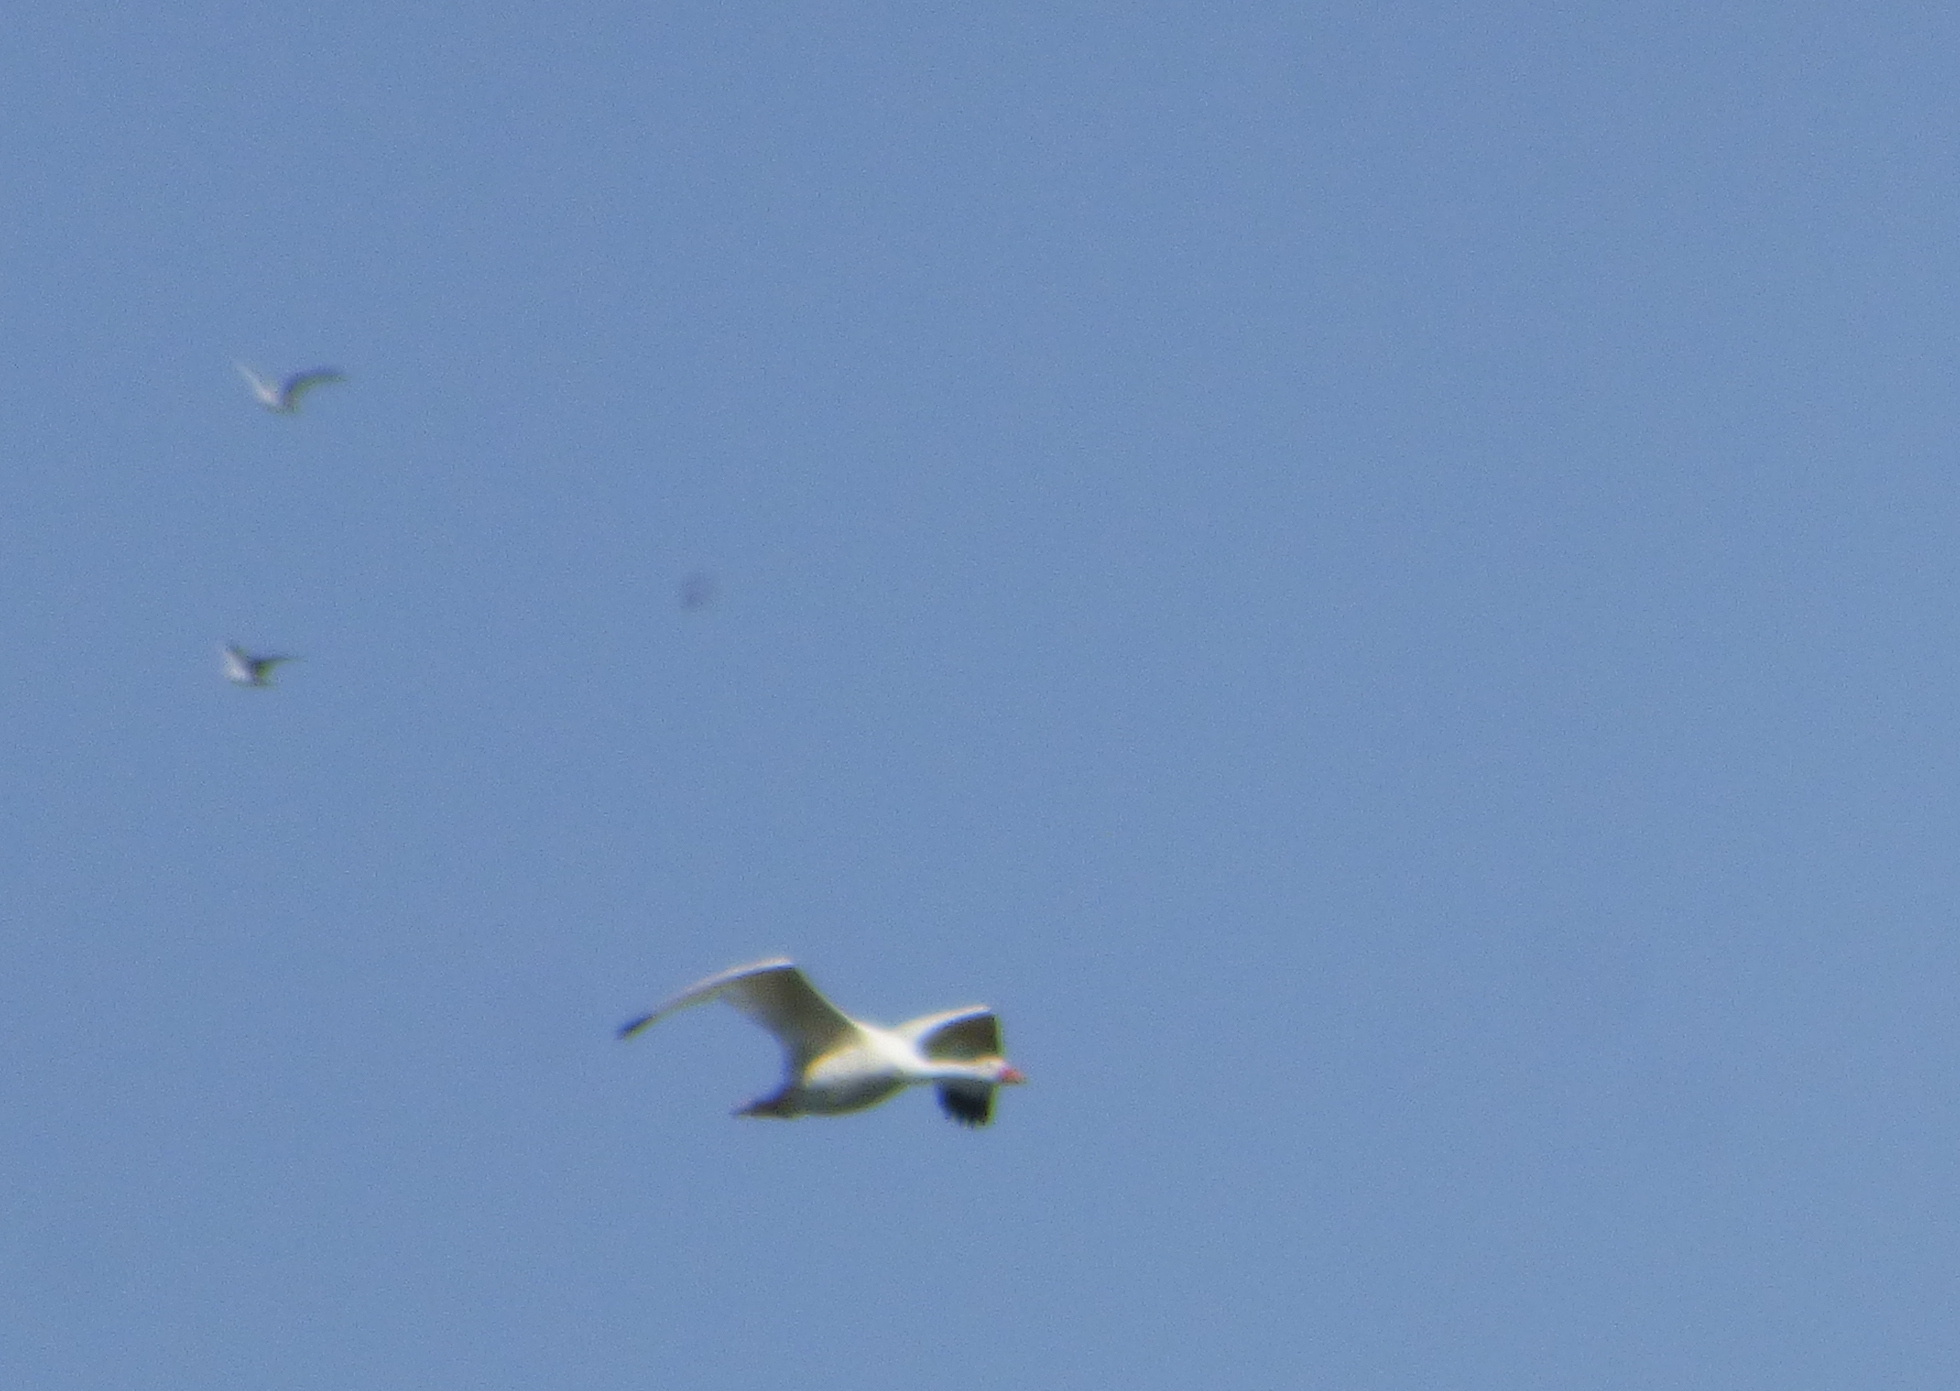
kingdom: Animalia
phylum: Chordata
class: Aves
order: Anseriformes
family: Anatidae
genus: Coscoroba
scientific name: Coscoroba coscoroba
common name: Coscoroba swan
